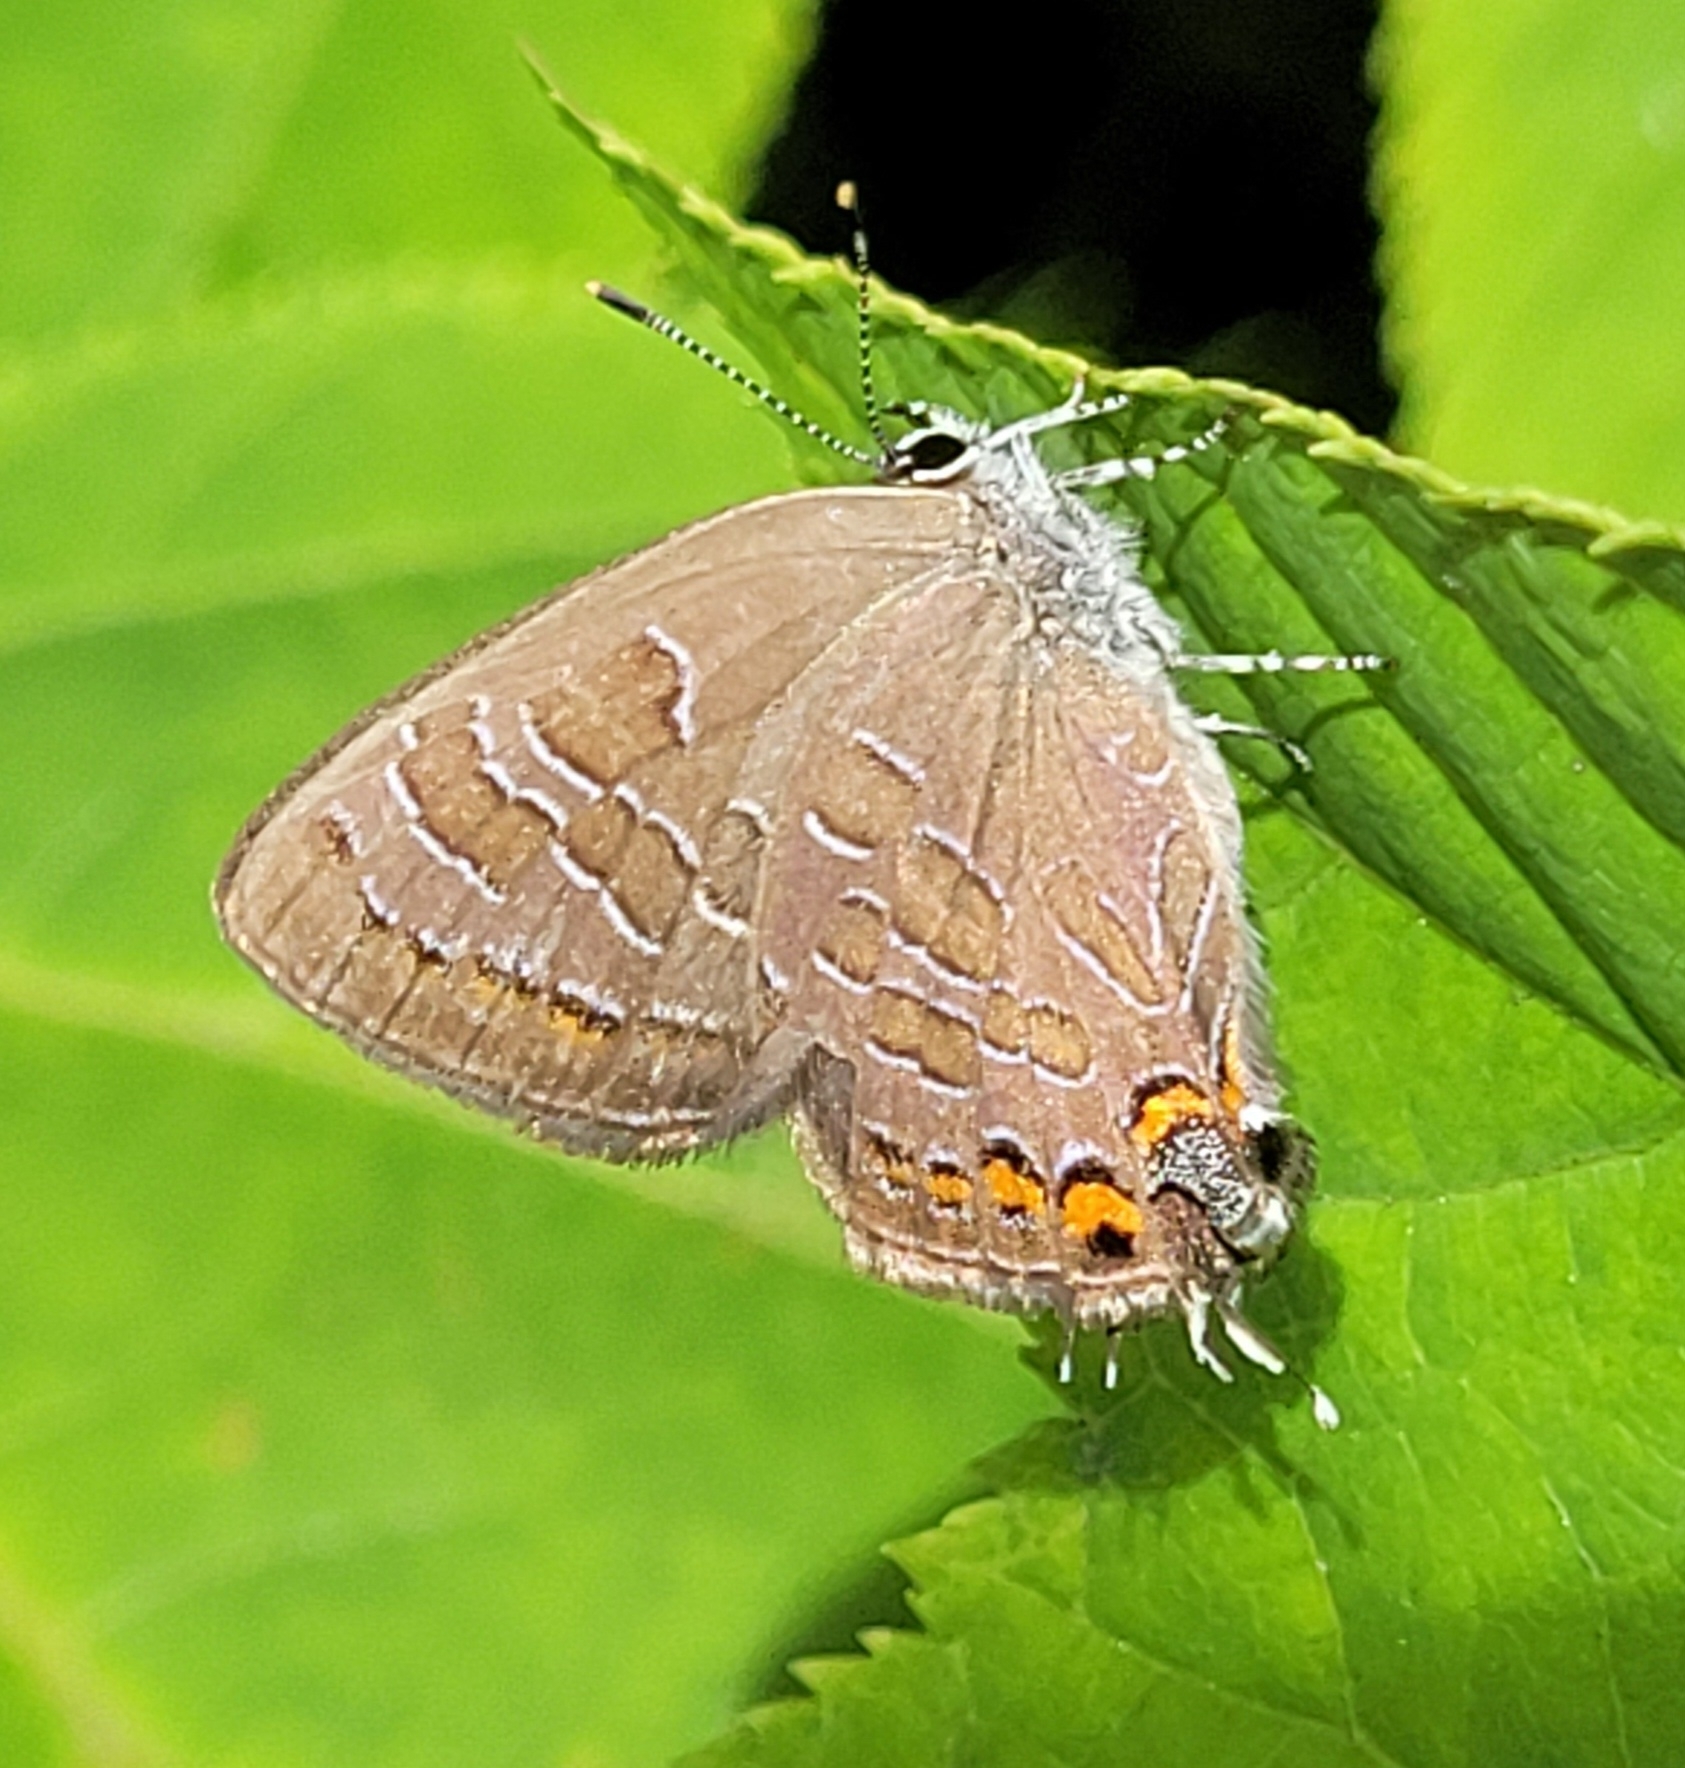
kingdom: Animalia
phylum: Arthropoda
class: Insecta
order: Lepidoptera
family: Lycaenidae
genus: Satyrium
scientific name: Satyrium liparops
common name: Striped hairstreak
